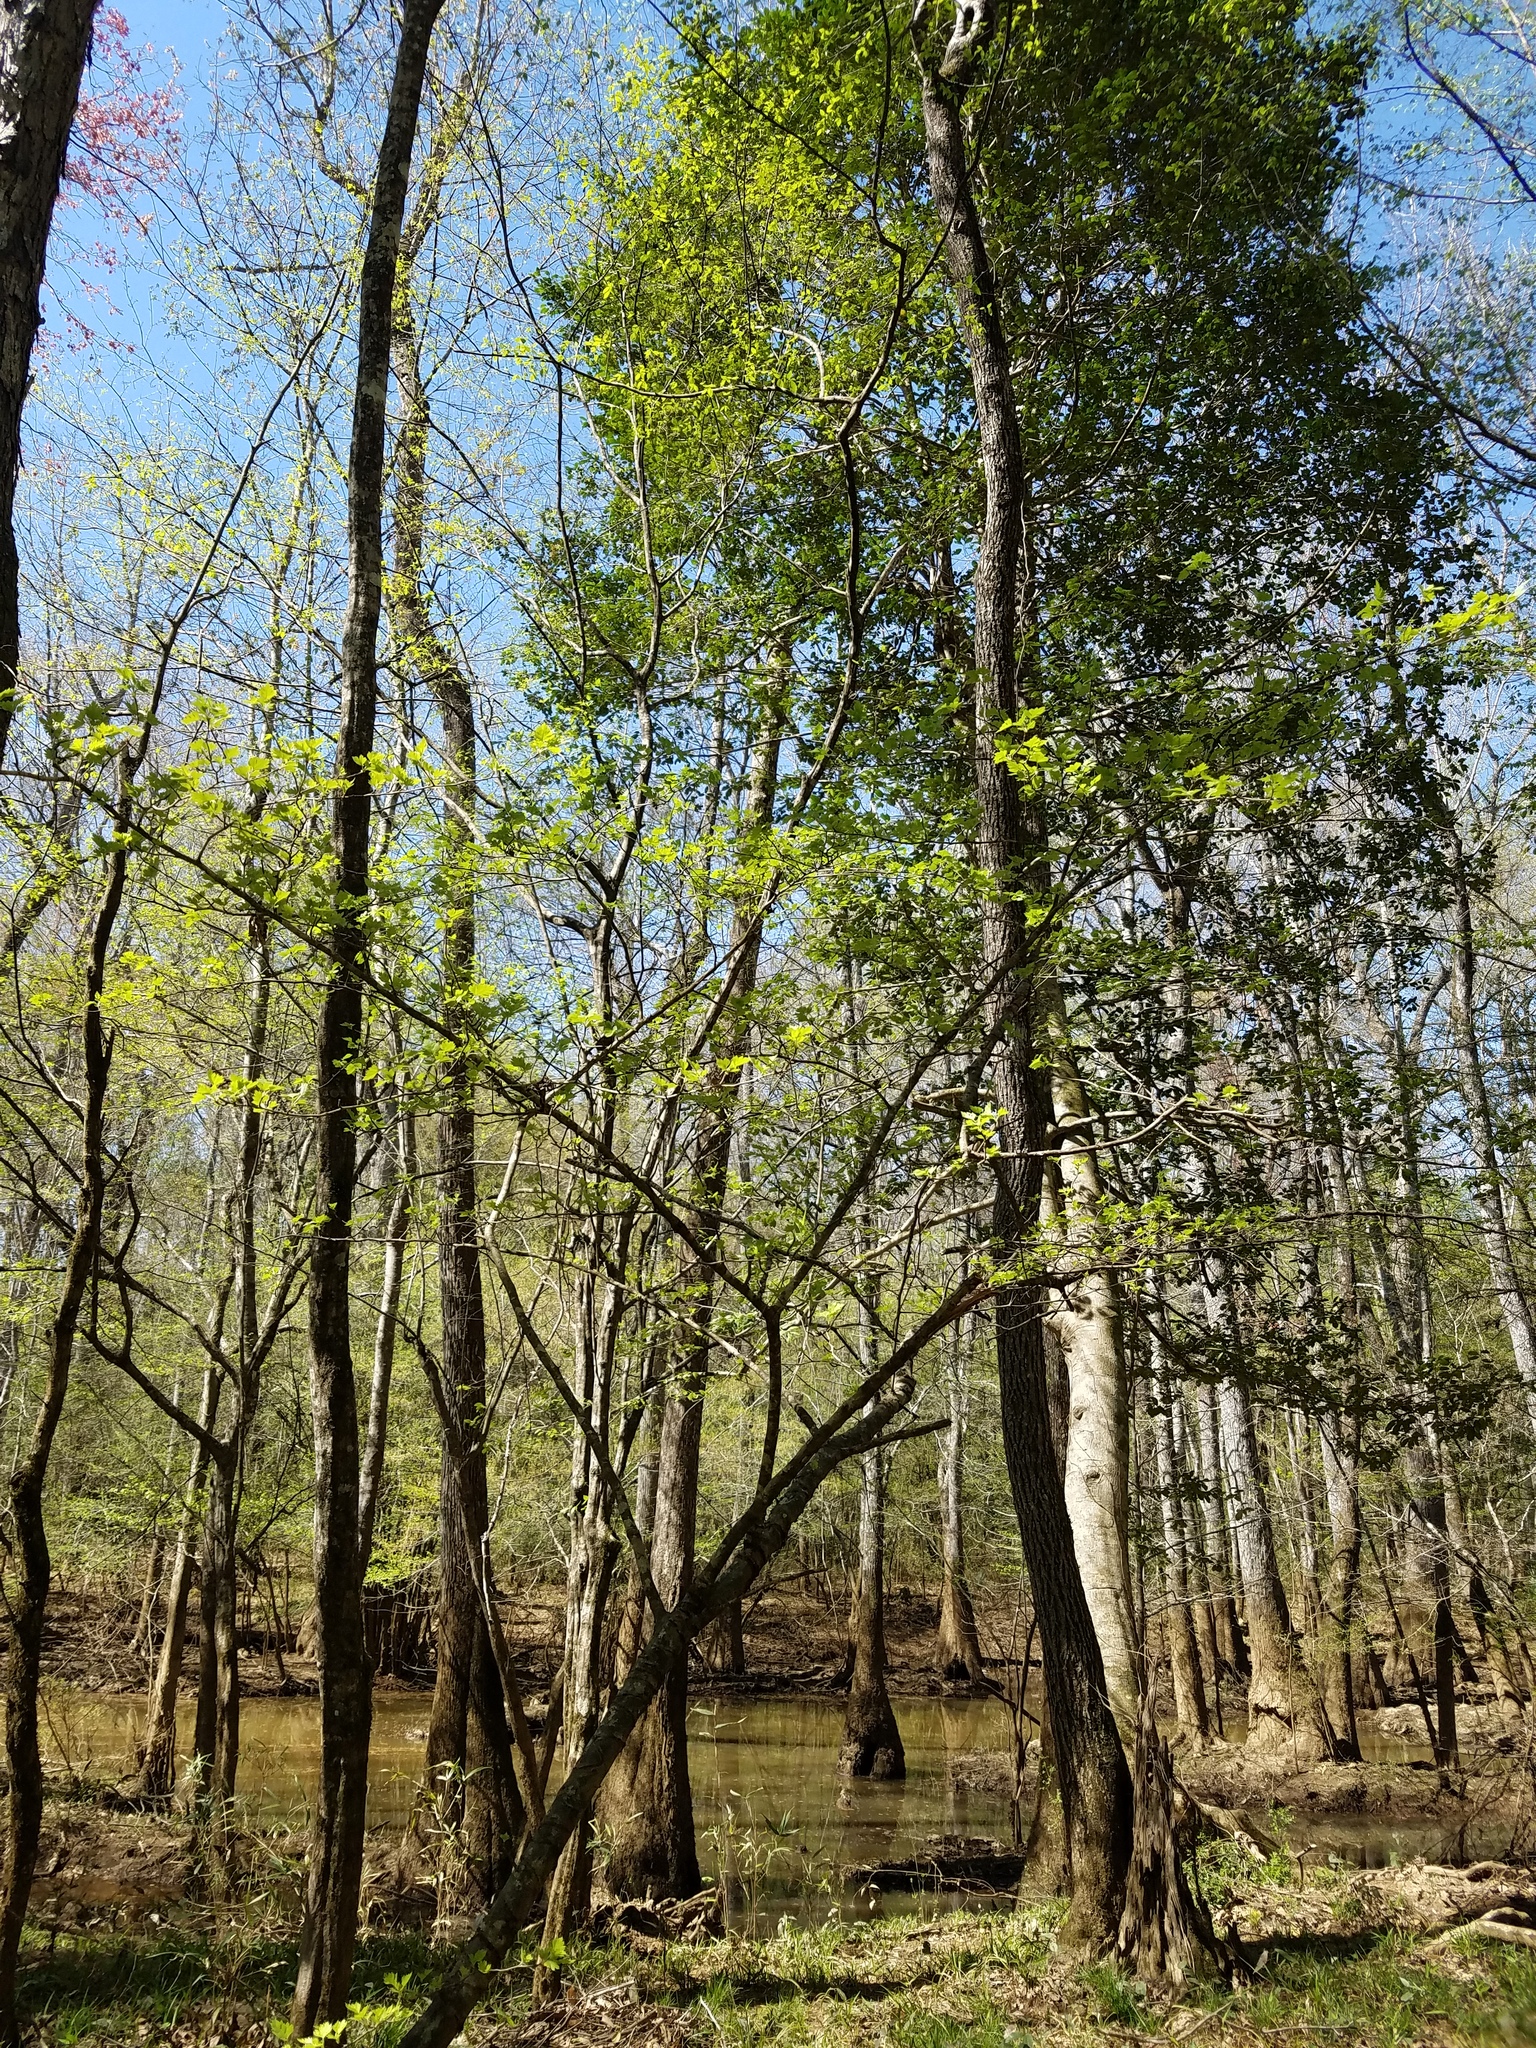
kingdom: Plantae
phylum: Tracheophyta
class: Magnoliopsida
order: Rosales
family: Rosaceae
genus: Crataegus
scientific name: Crataegus marshallii
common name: Parsley-hawthorn
